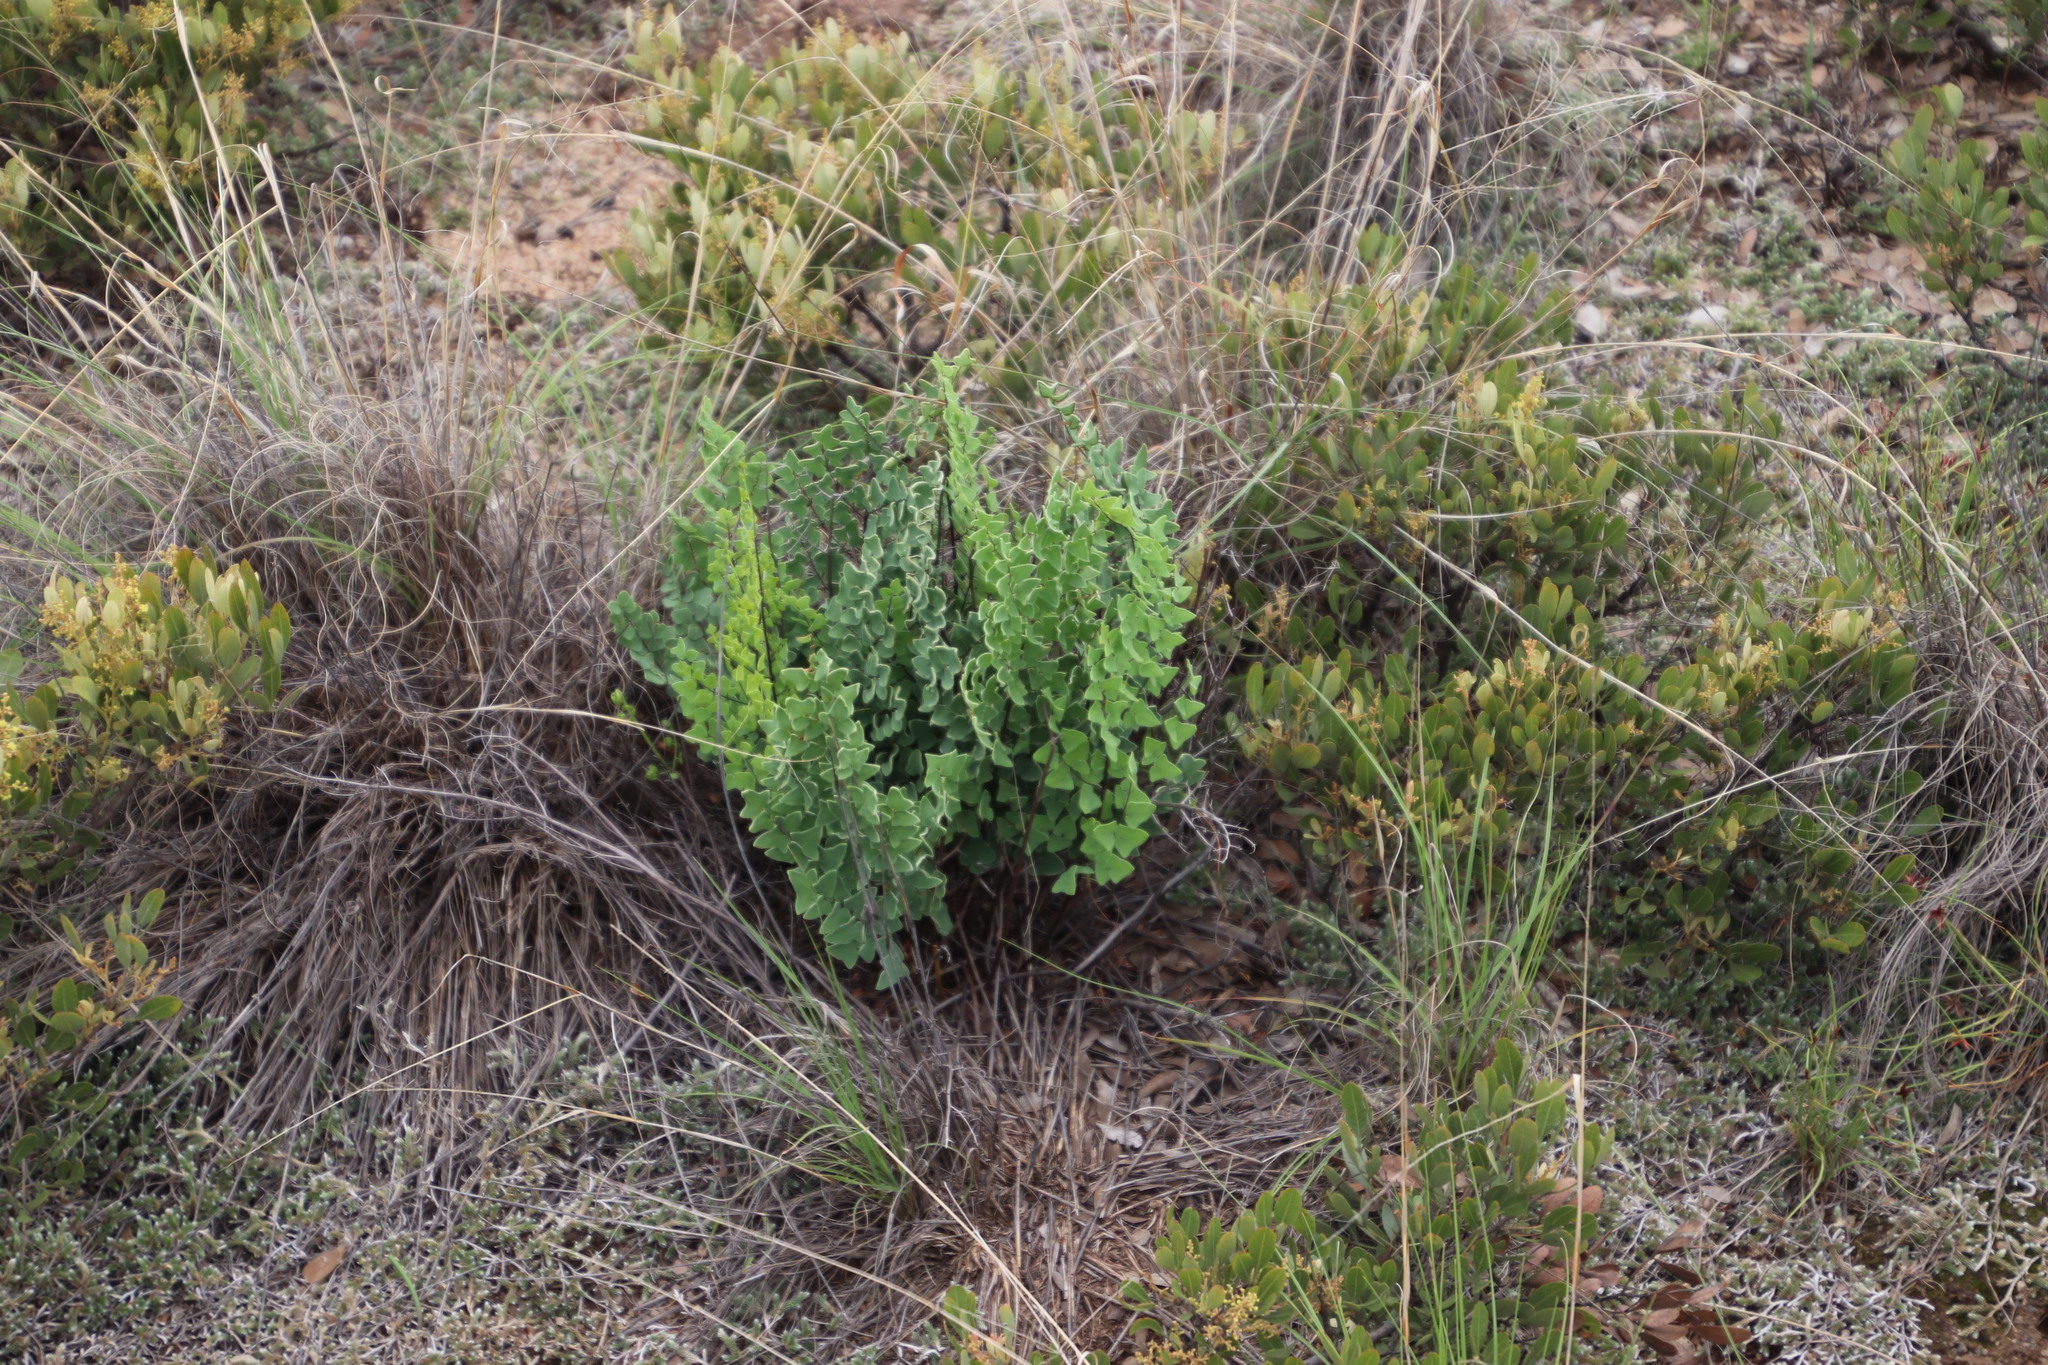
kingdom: Plantae
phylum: Tracheophyta
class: Polypodiopsida
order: Polypodiales
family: Pteridaceae
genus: Pellaea
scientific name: Pellaea calomelanos
